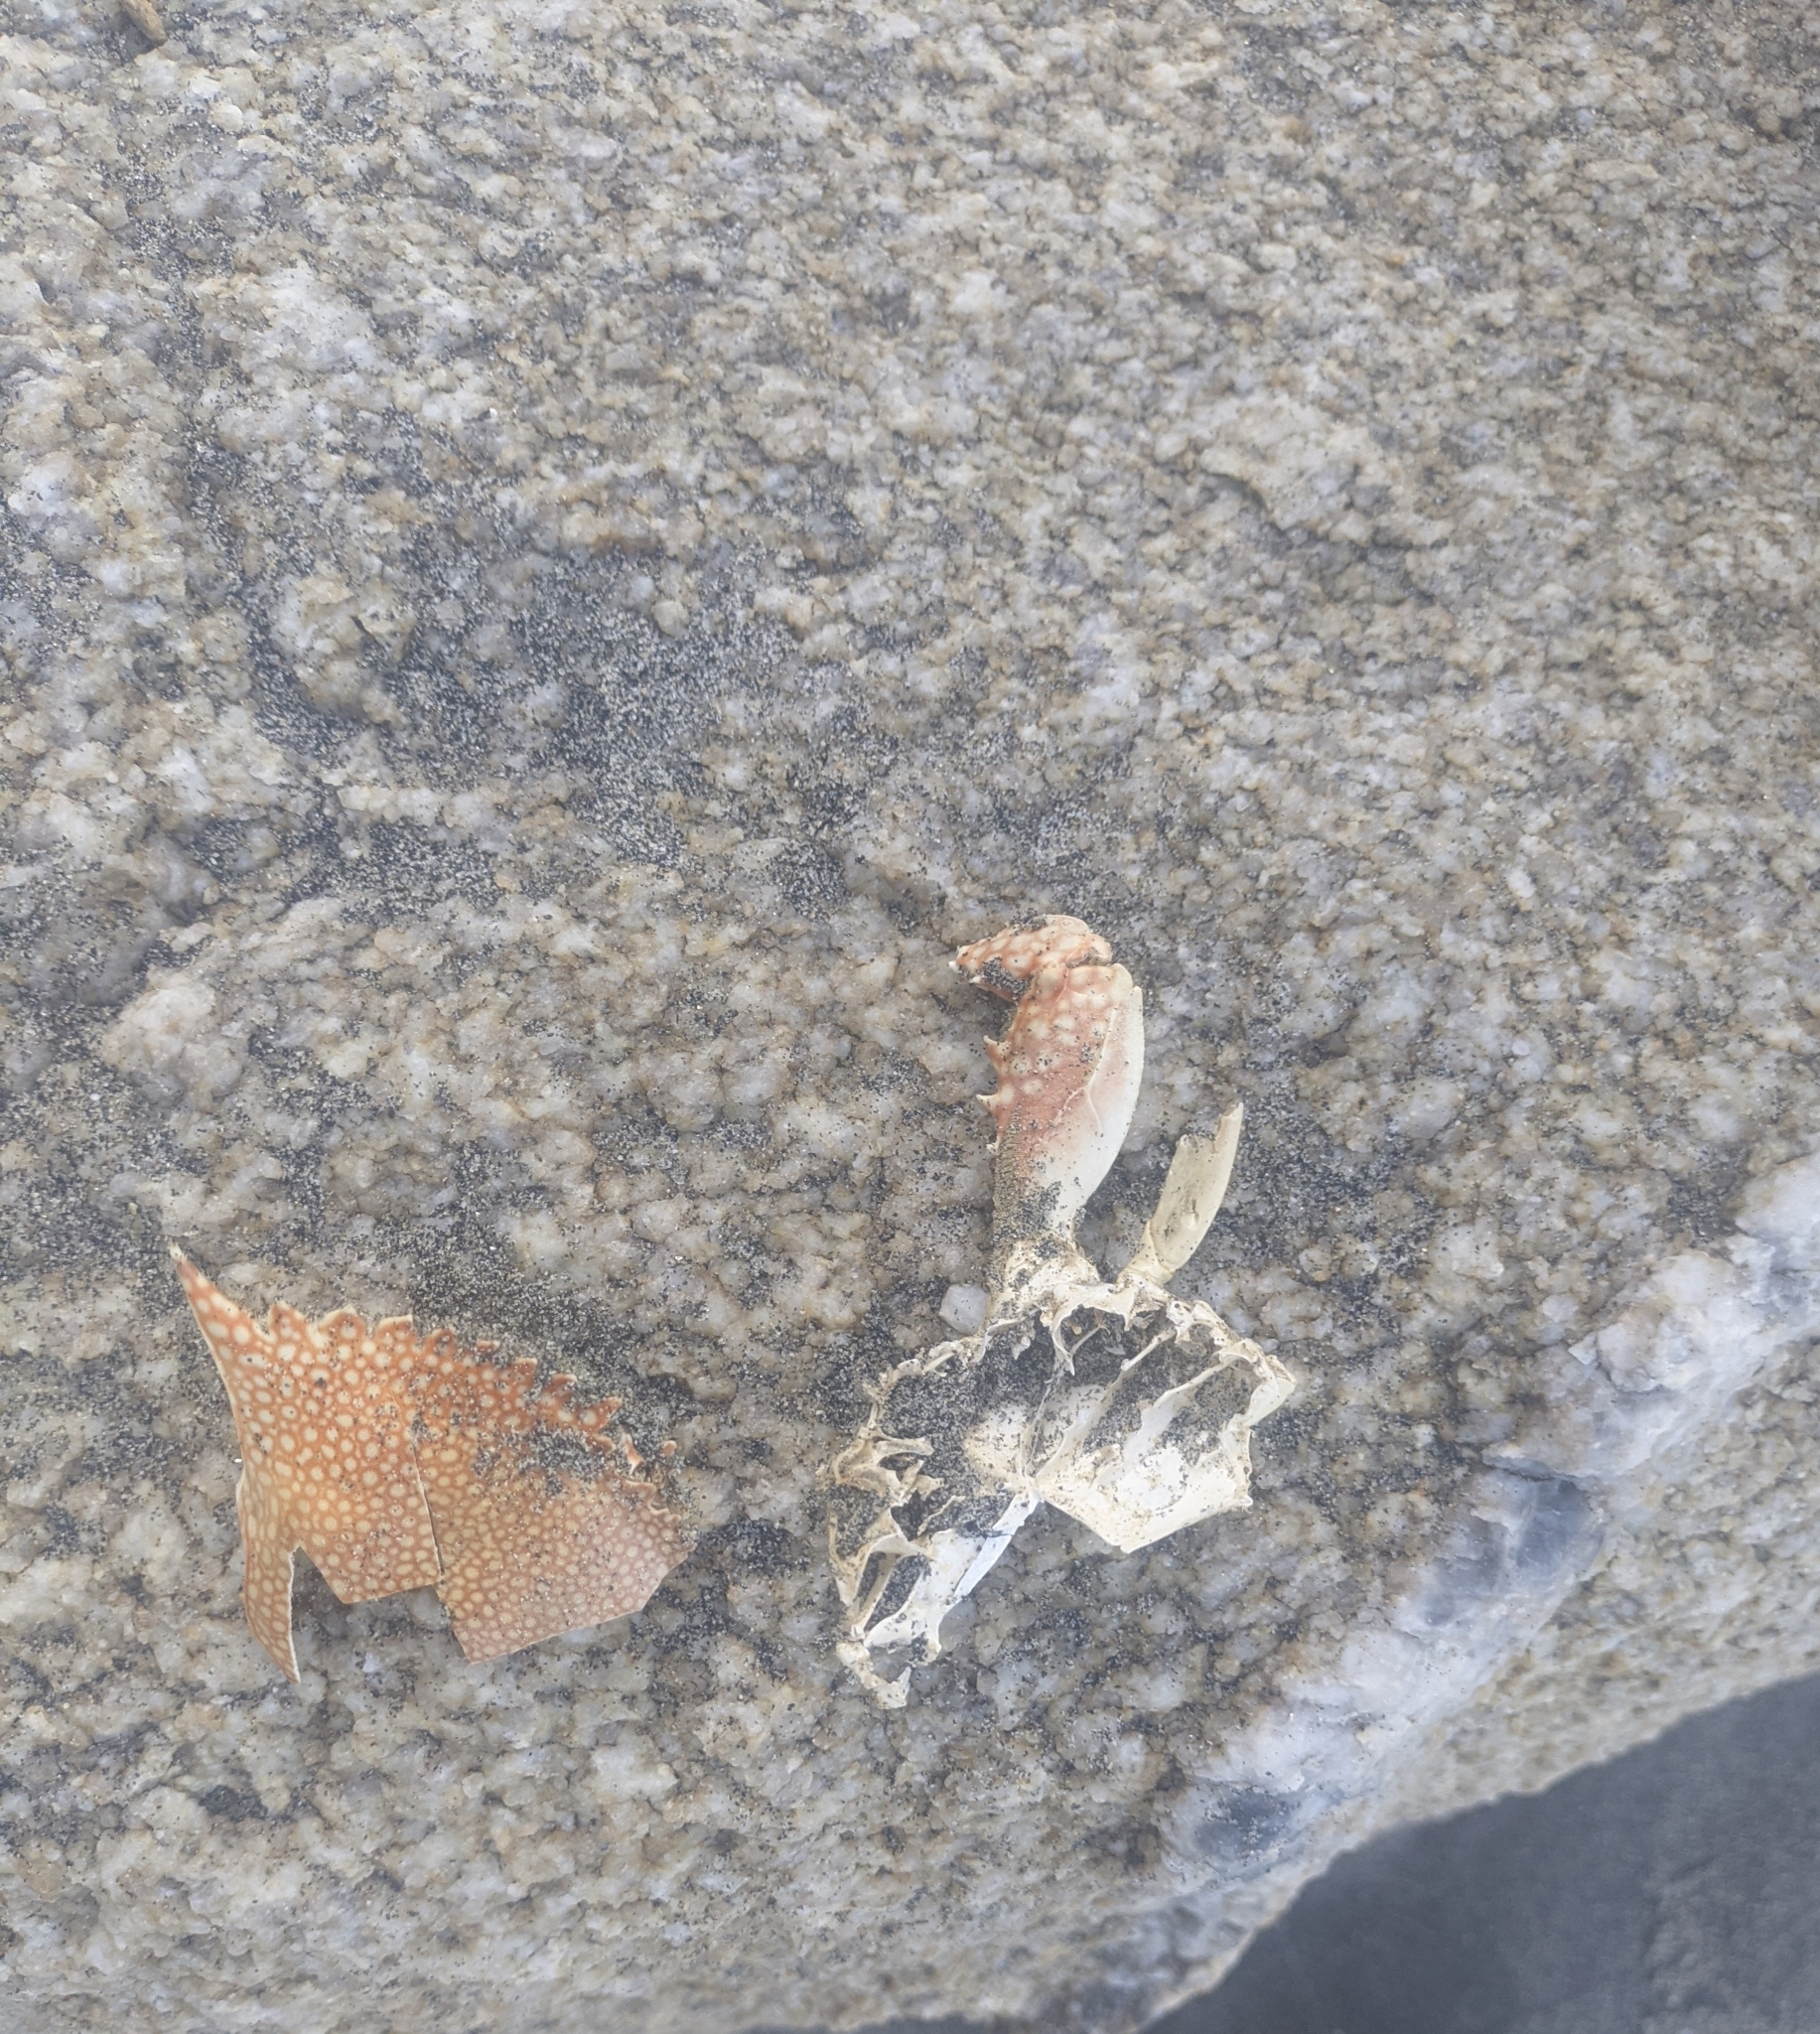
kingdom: Animalia
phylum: Arthropoda
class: Malacostraca
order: Decapoda
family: Portunidae
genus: Arenaeus
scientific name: Arenaeus cribrarius
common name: Speckled crab
